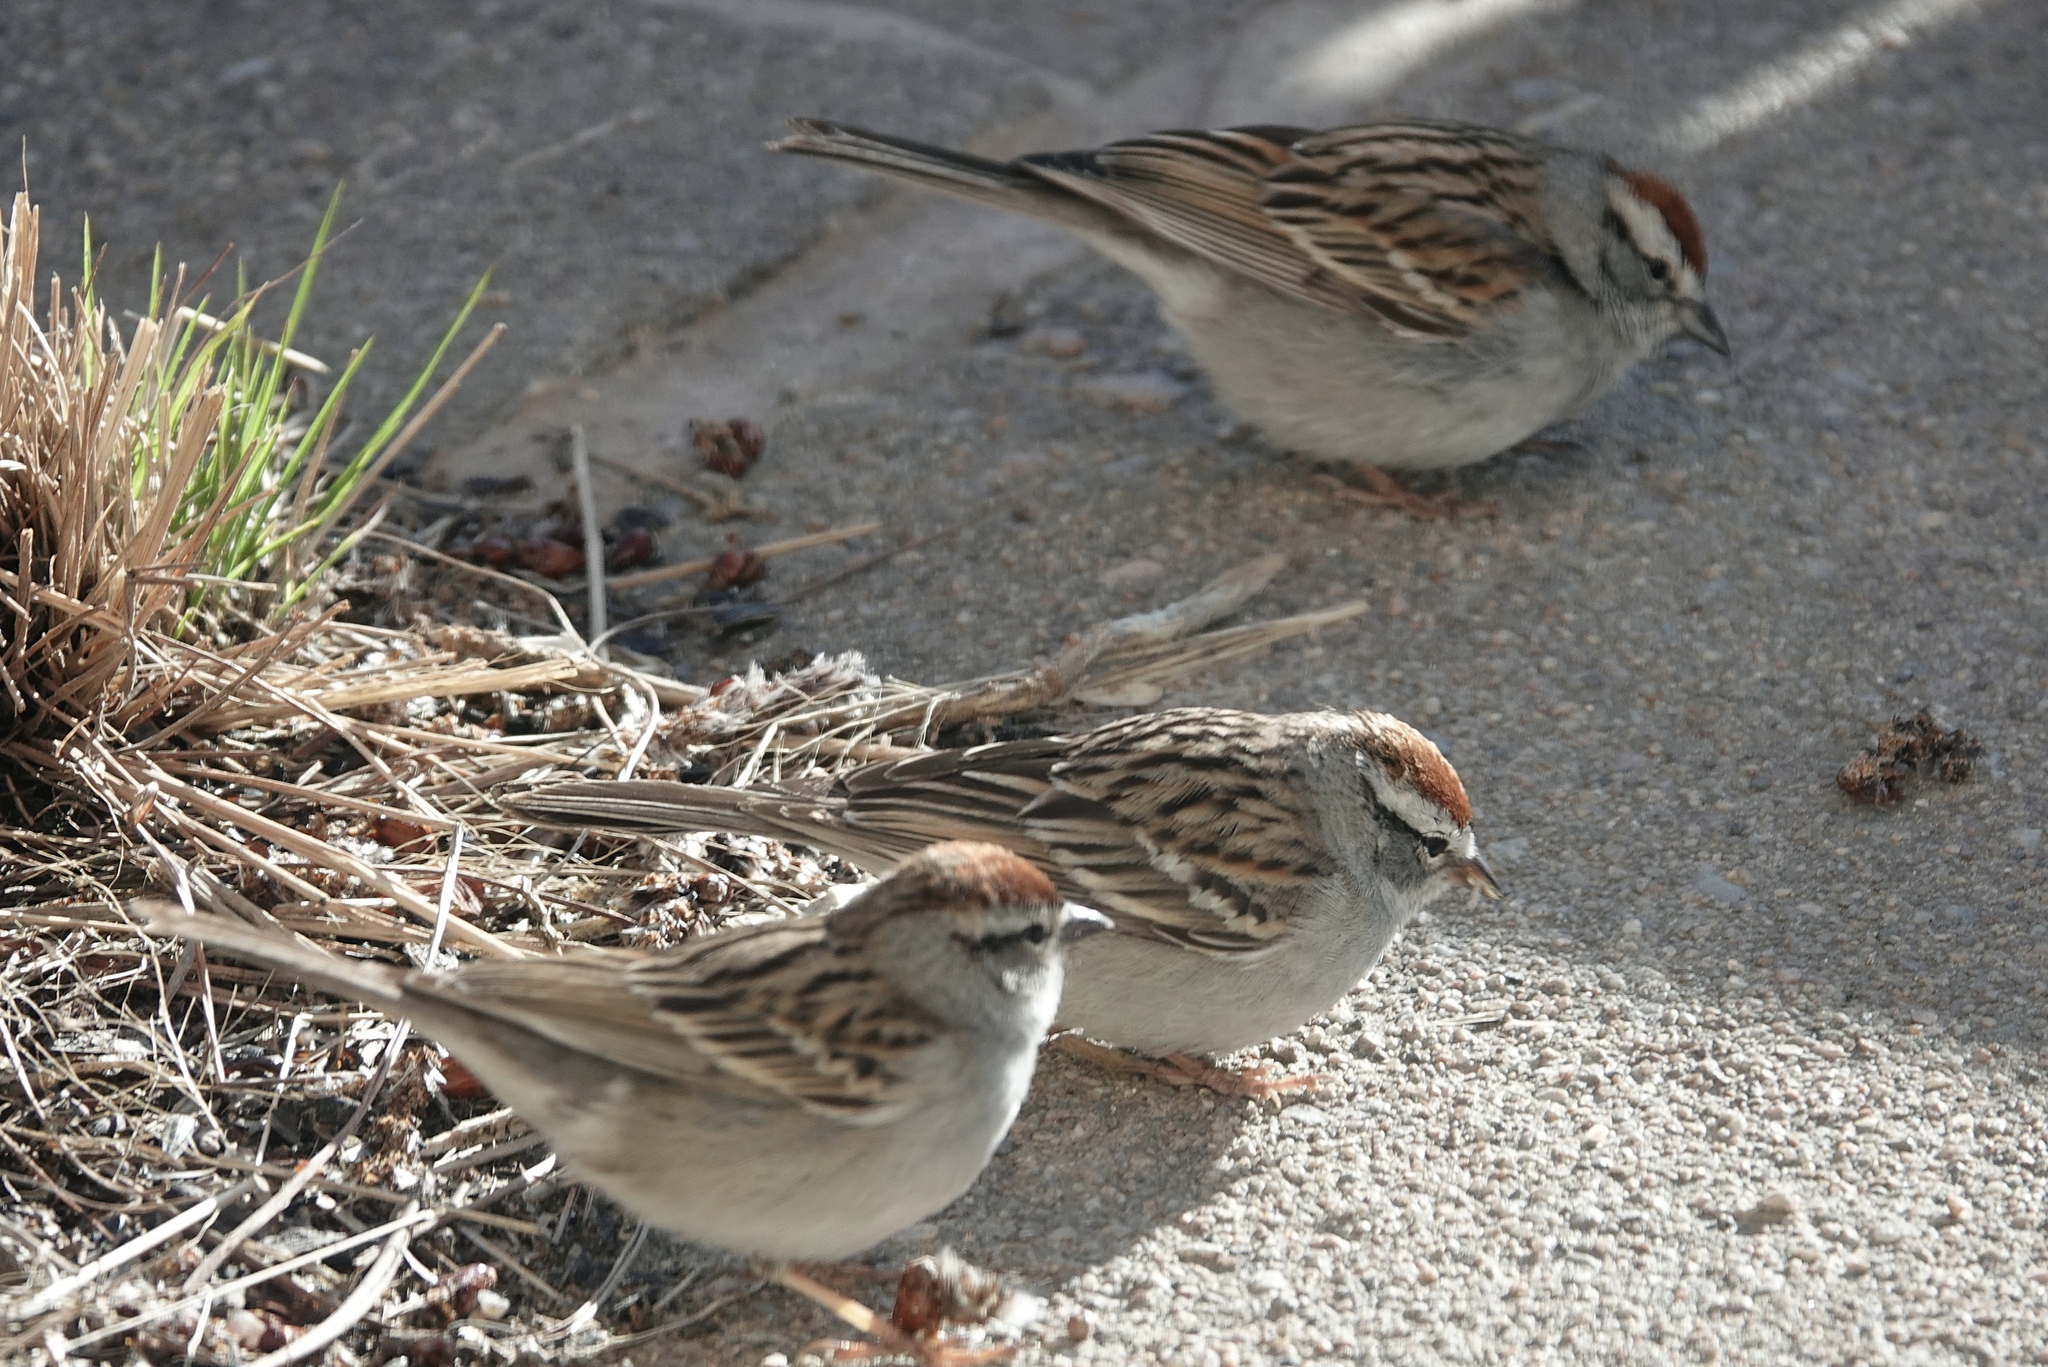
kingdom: Animalia
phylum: Chordata
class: Aves
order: Passeriformes
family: Passerellidae
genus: Spizella
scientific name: Spizella passerina
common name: Chipping sparrow
